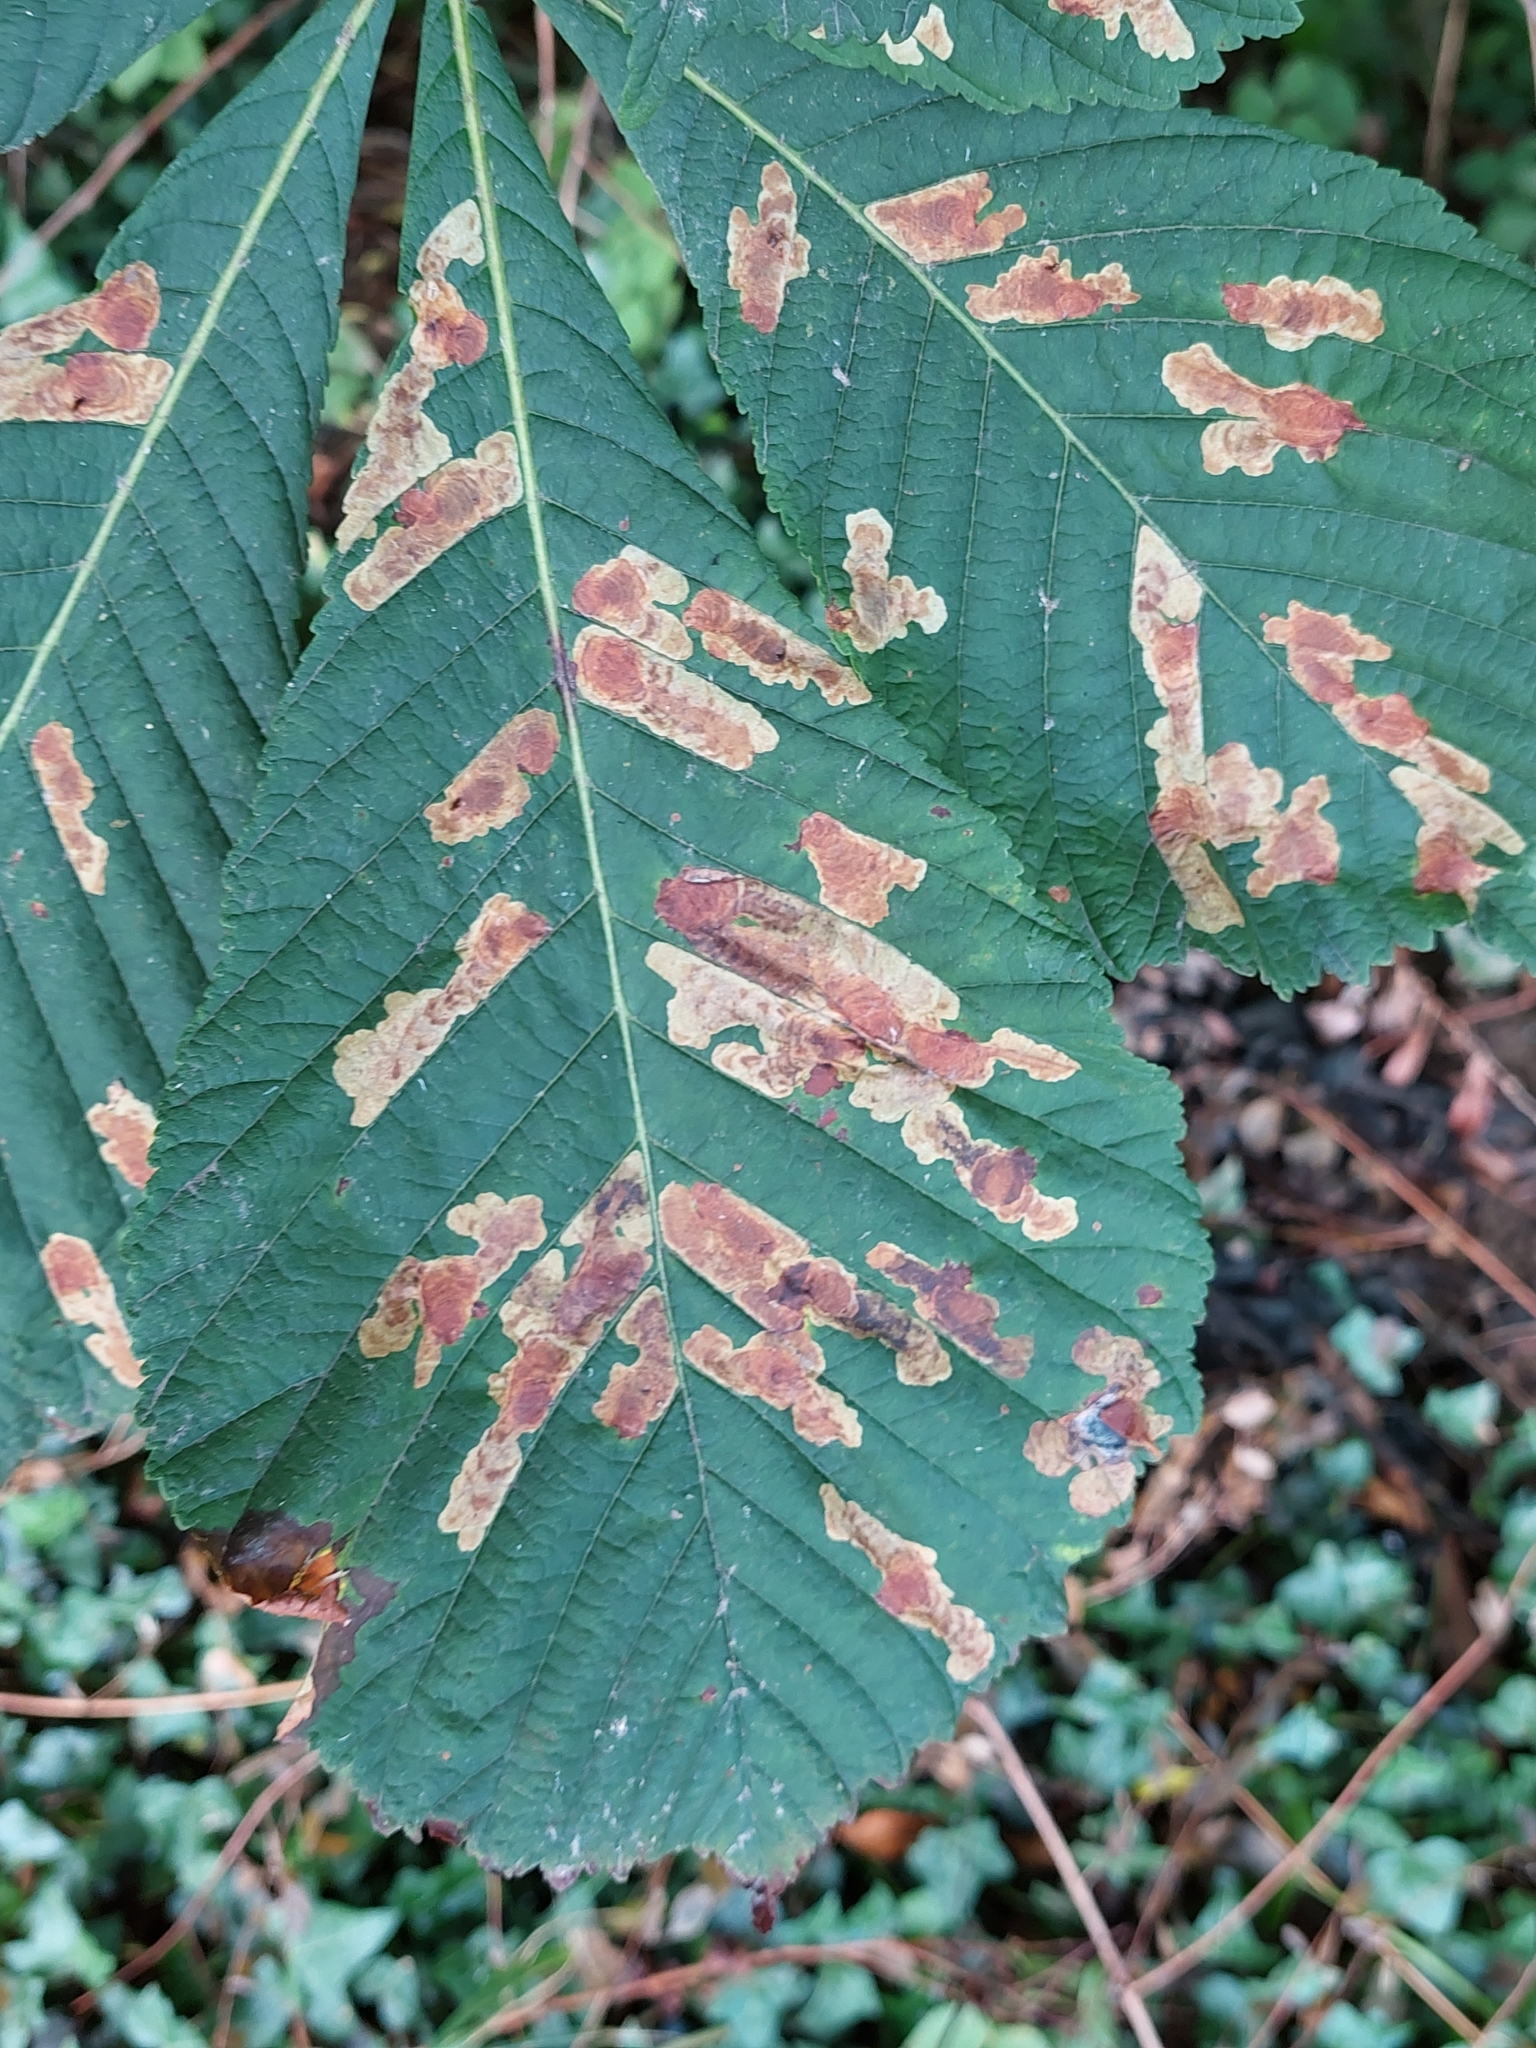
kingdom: Animalia
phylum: Arthropoda
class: Insecta
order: Lepidoptera
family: Gracillariidae
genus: Cameraria
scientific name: Cameraria ohridella
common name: Horse-chestnut leaf-miner
